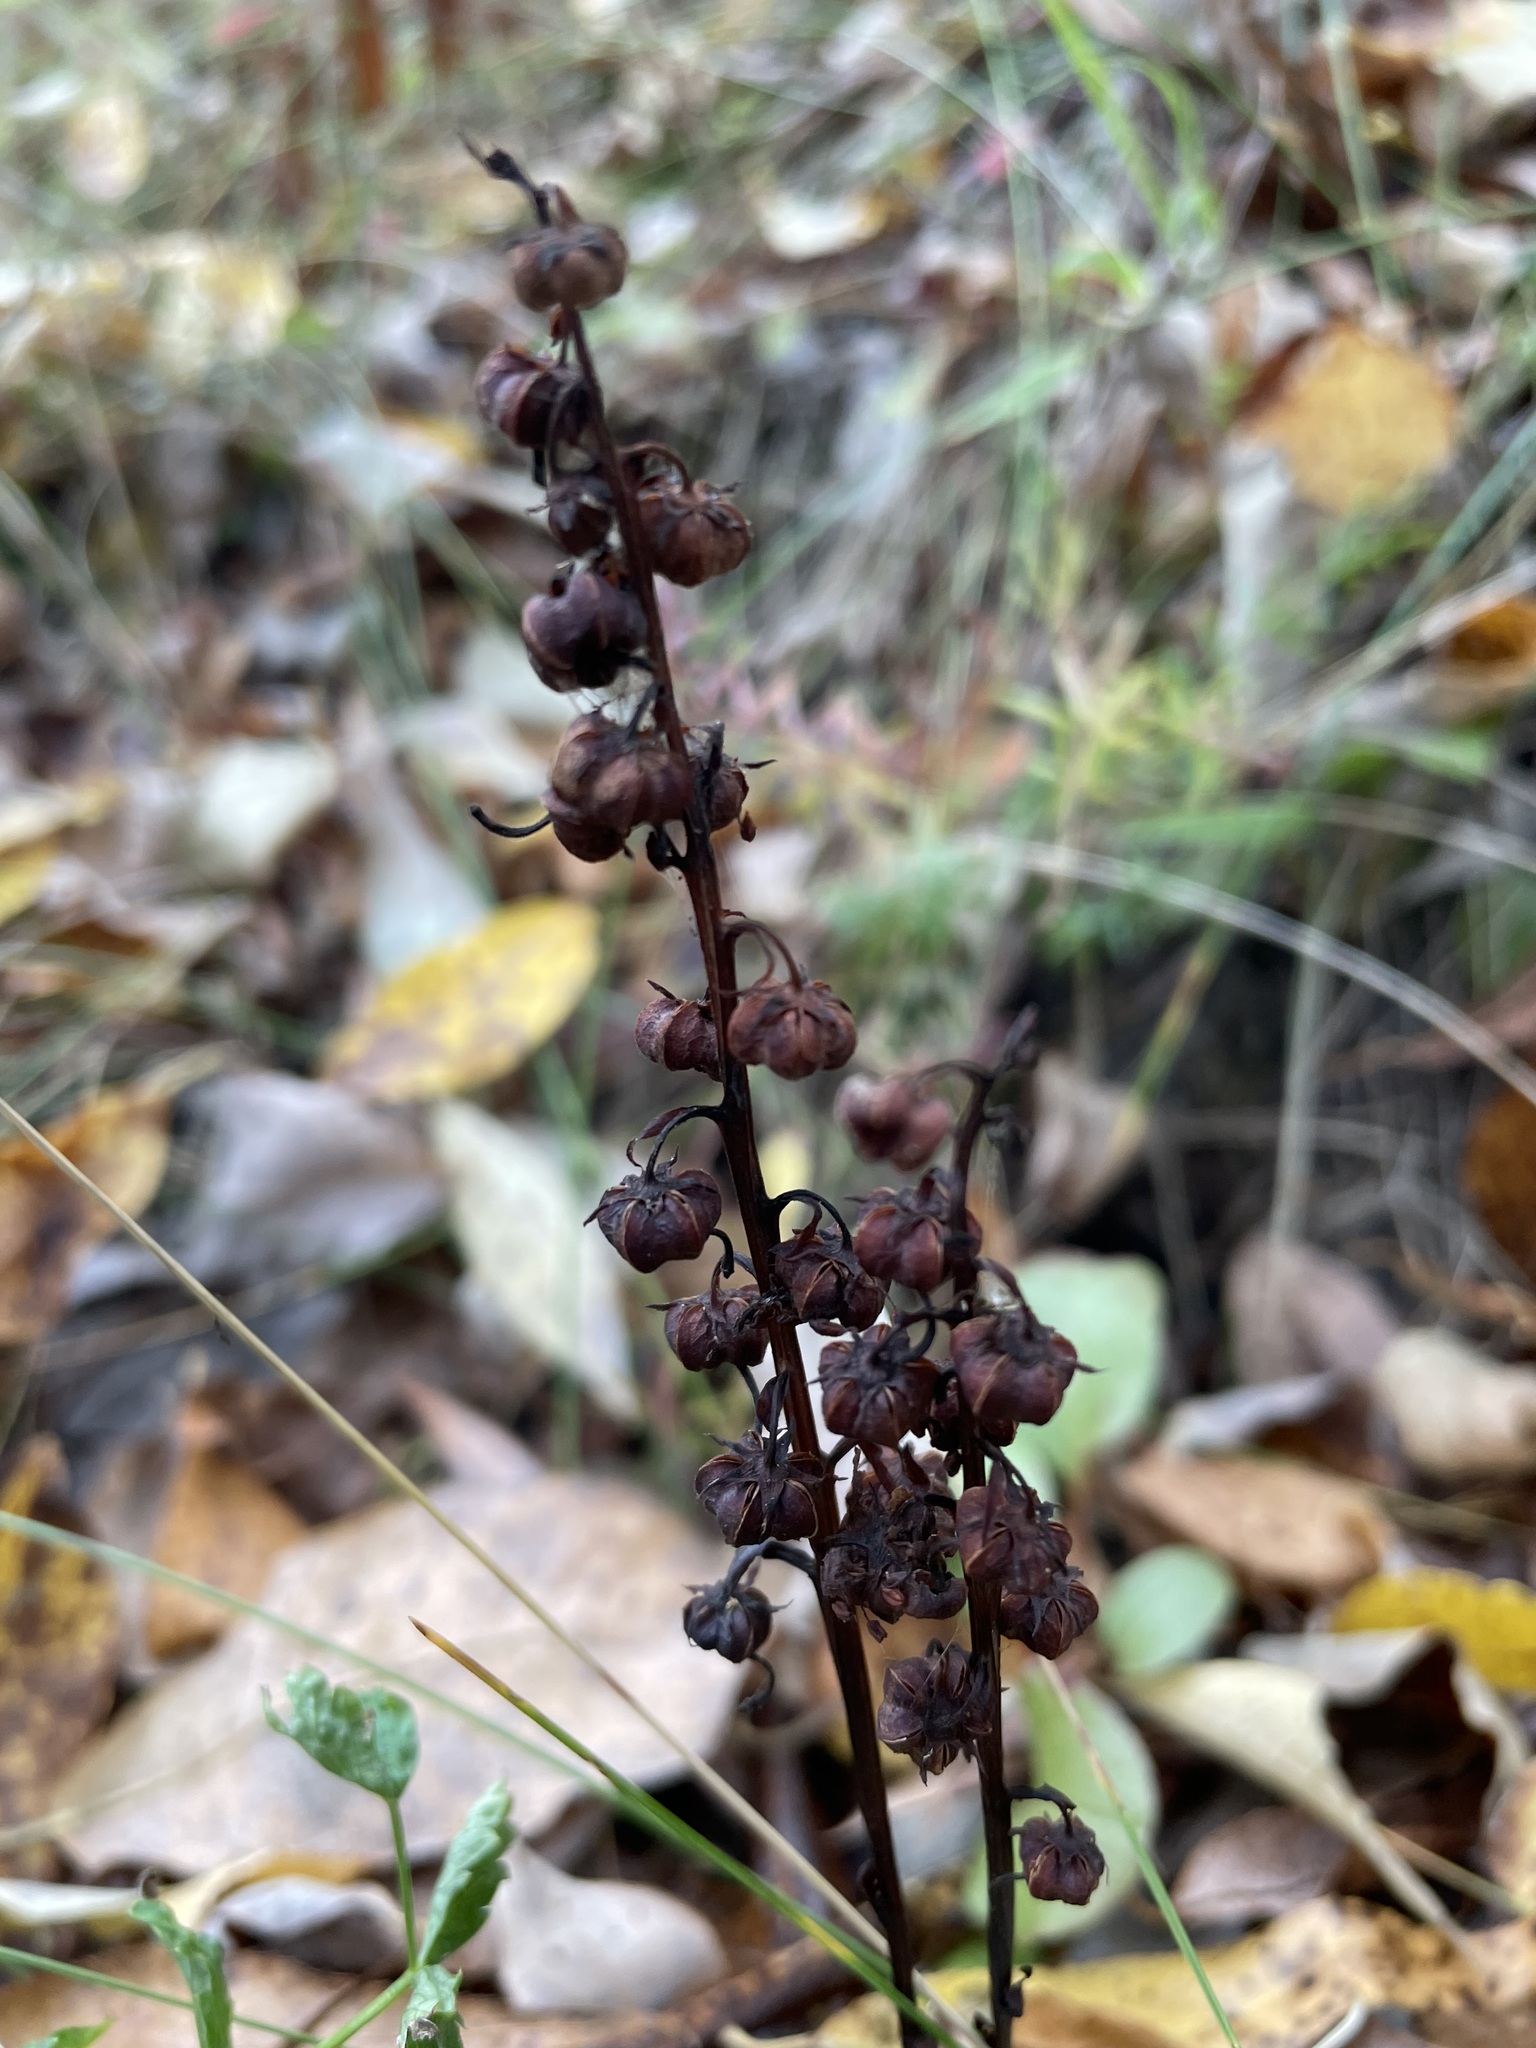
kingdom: Plantae
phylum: Tracheophyta
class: Magnoliopsida
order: Ericales
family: Ericaceae
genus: Pyrola
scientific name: Pyrola rotundifolia
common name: Round-leaved wintergreen
